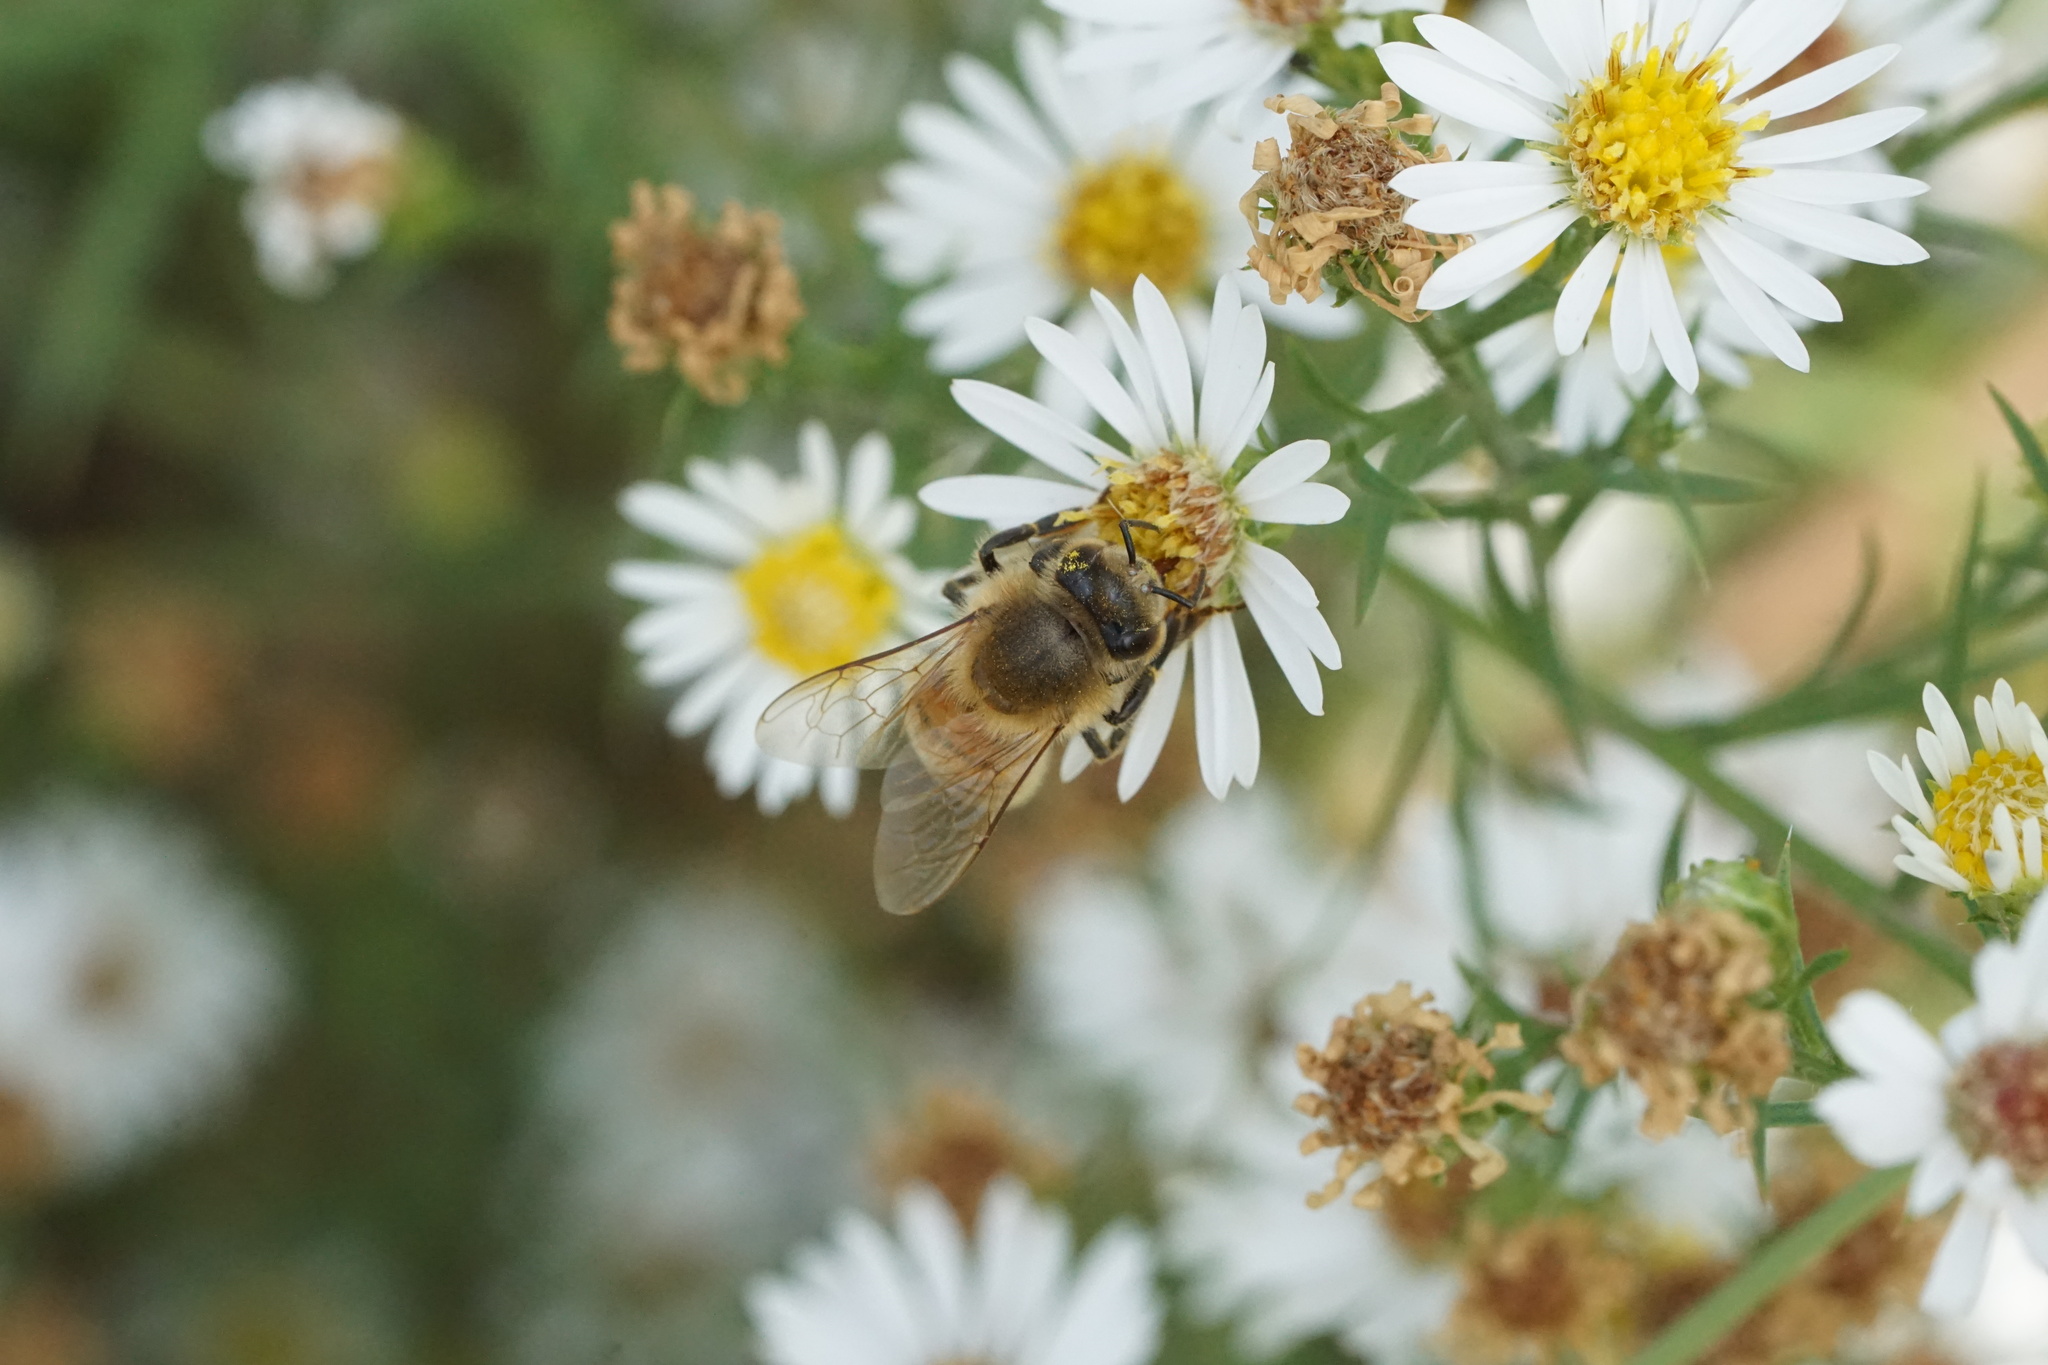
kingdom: Animalia
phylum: Arthropoda
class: Insecta
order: Hymenoptera
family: Apidae
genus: Apis
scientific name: Apis mellifera
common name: Honey bee
